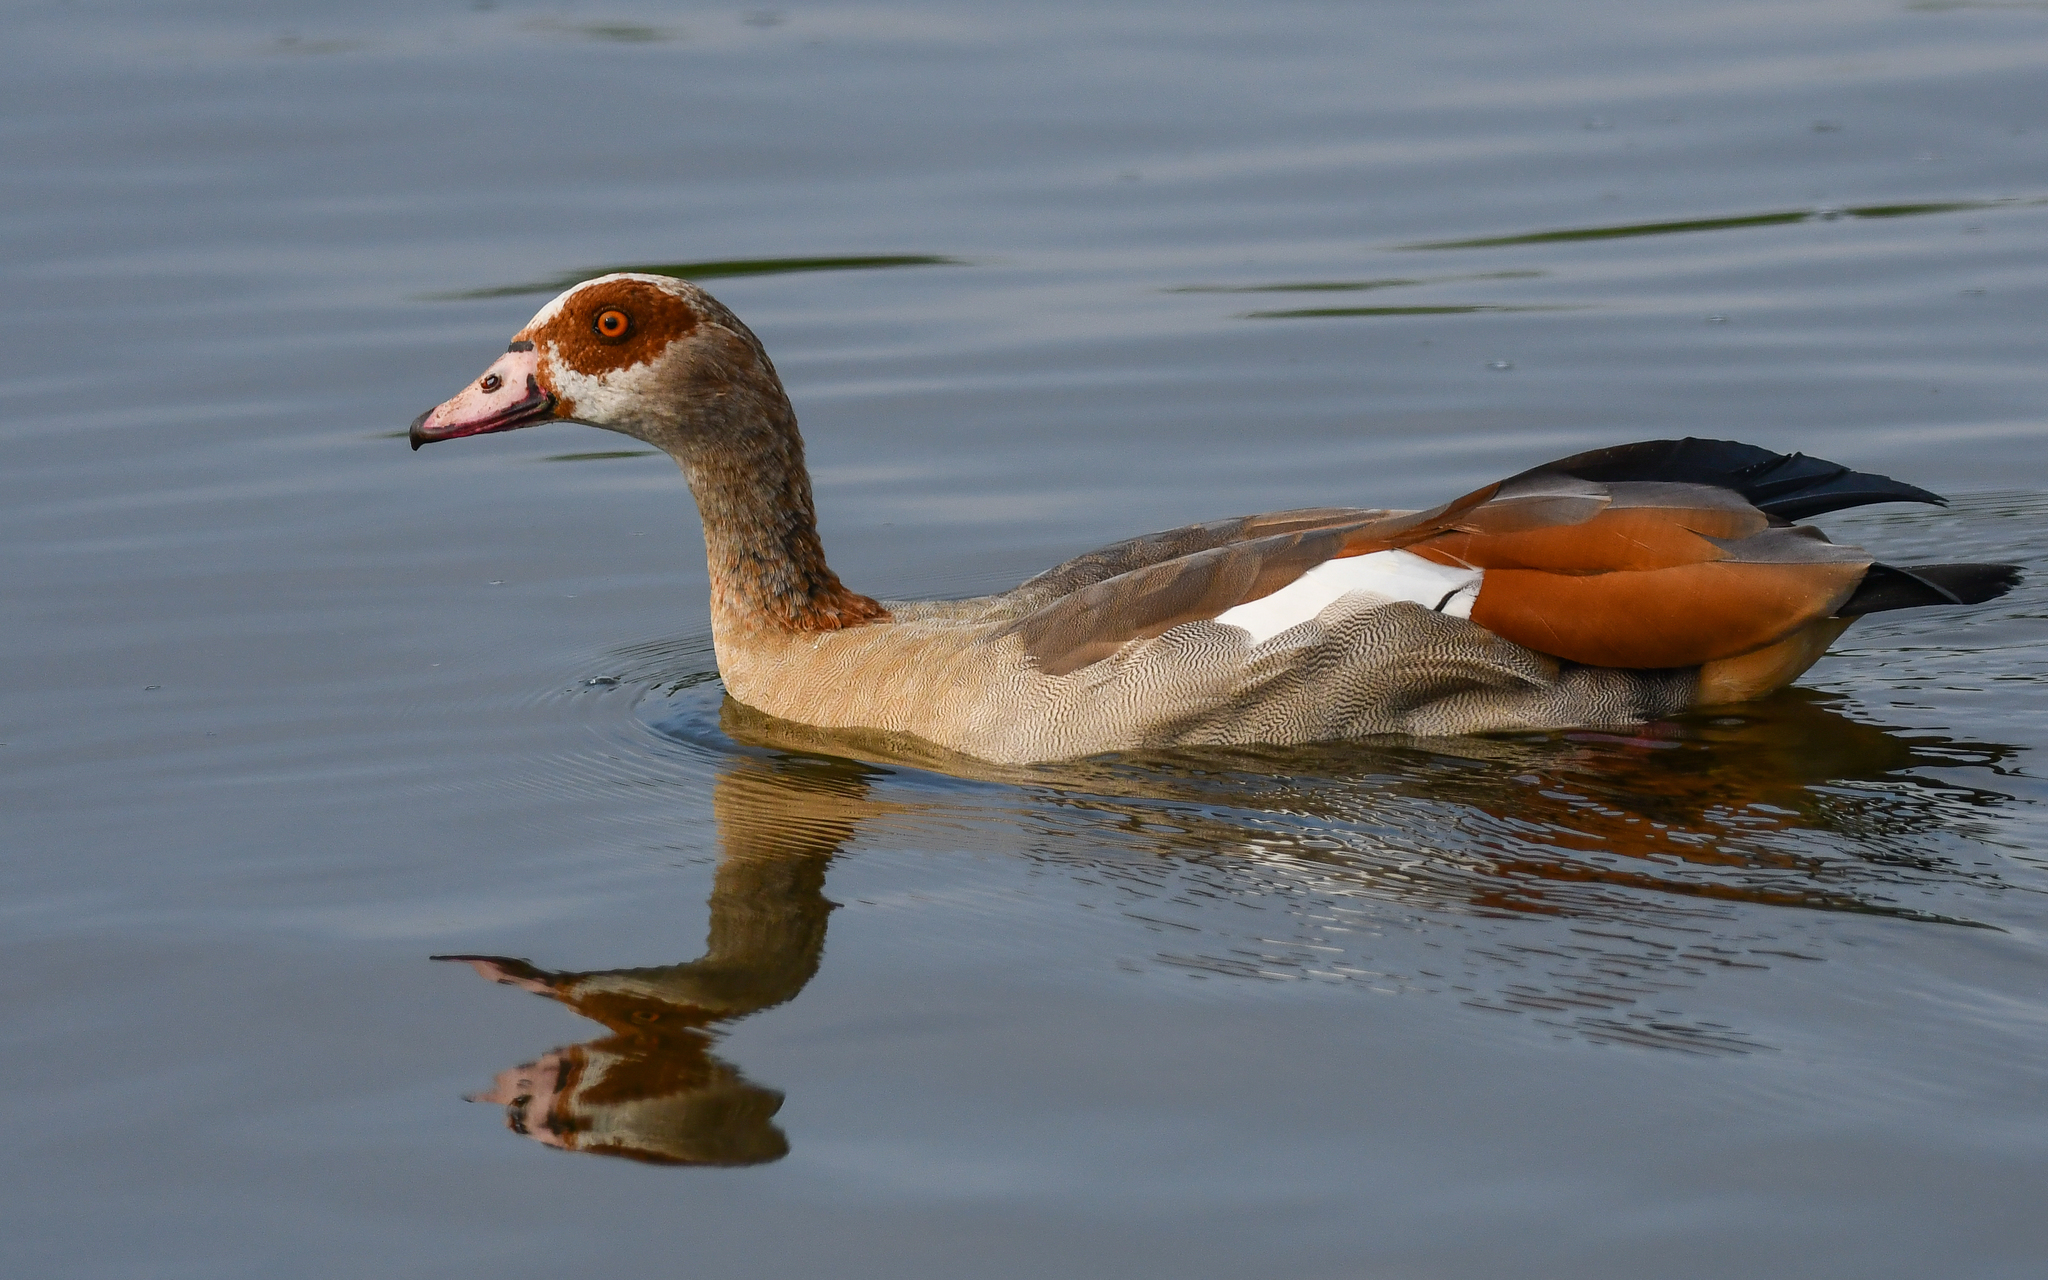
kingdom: Animalia
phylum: Chordata
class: Aves
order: Anseriformes
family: Anatidae
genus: Alopochen
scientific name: Alopochen aegyptiaca
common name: Egyptian goose
